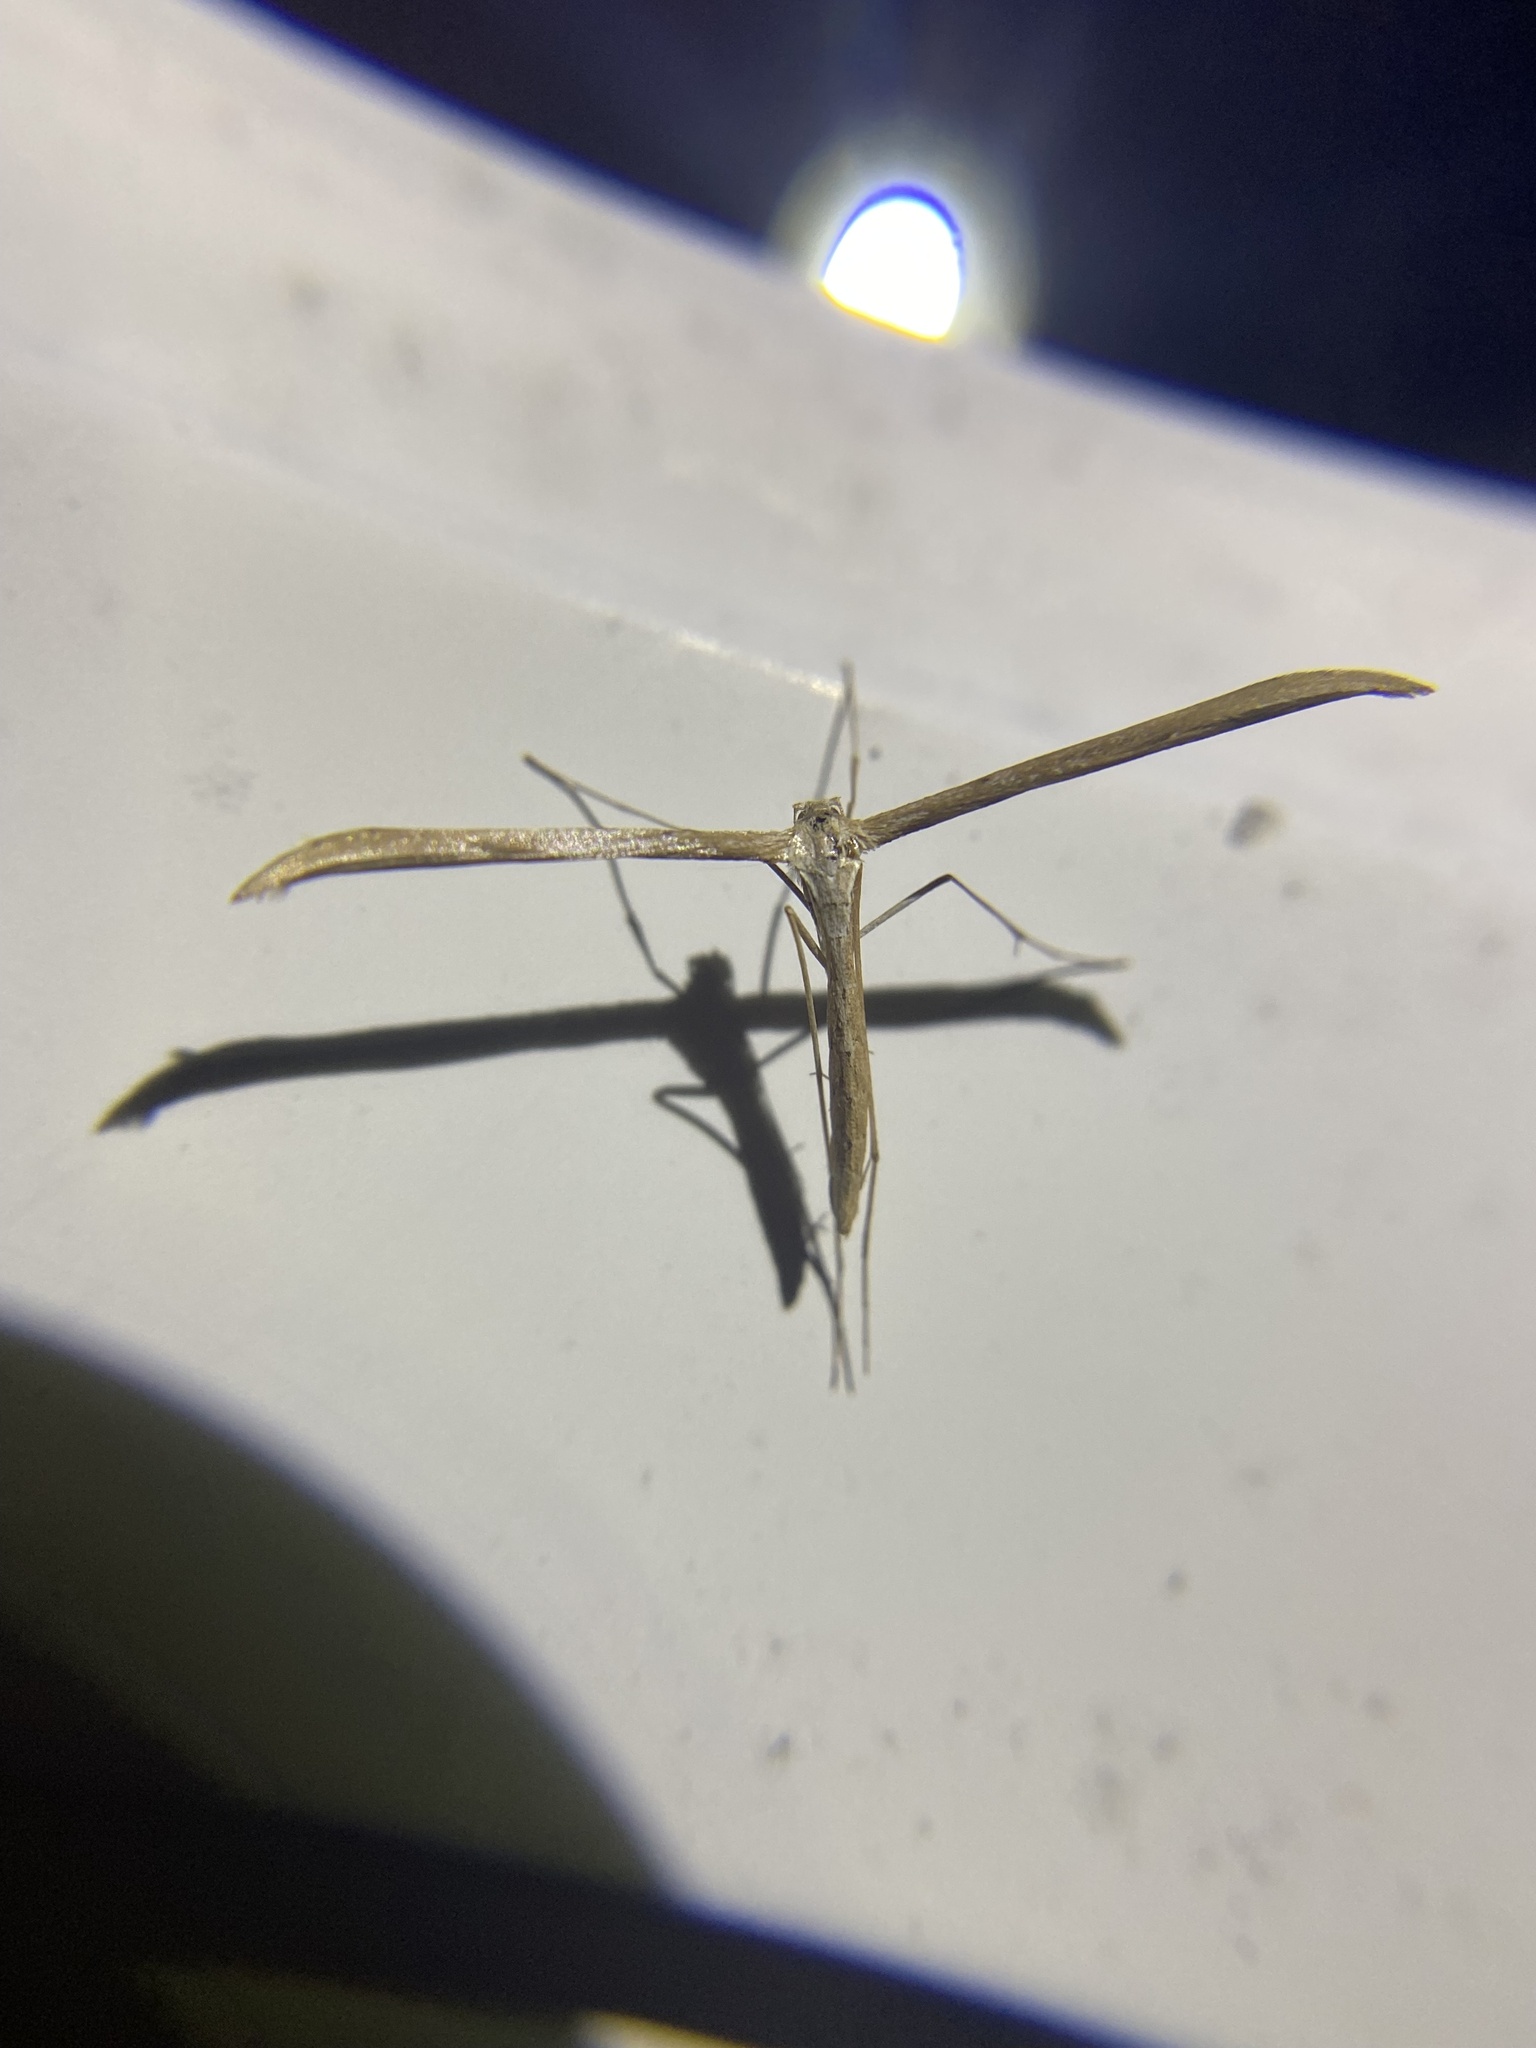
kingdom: Animalia
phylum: Arthropoda
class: Insecta
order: Lepidoptera
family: Pterophoridae
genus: Emmelina
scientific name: Emmelina monodactyla
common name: Common plume
